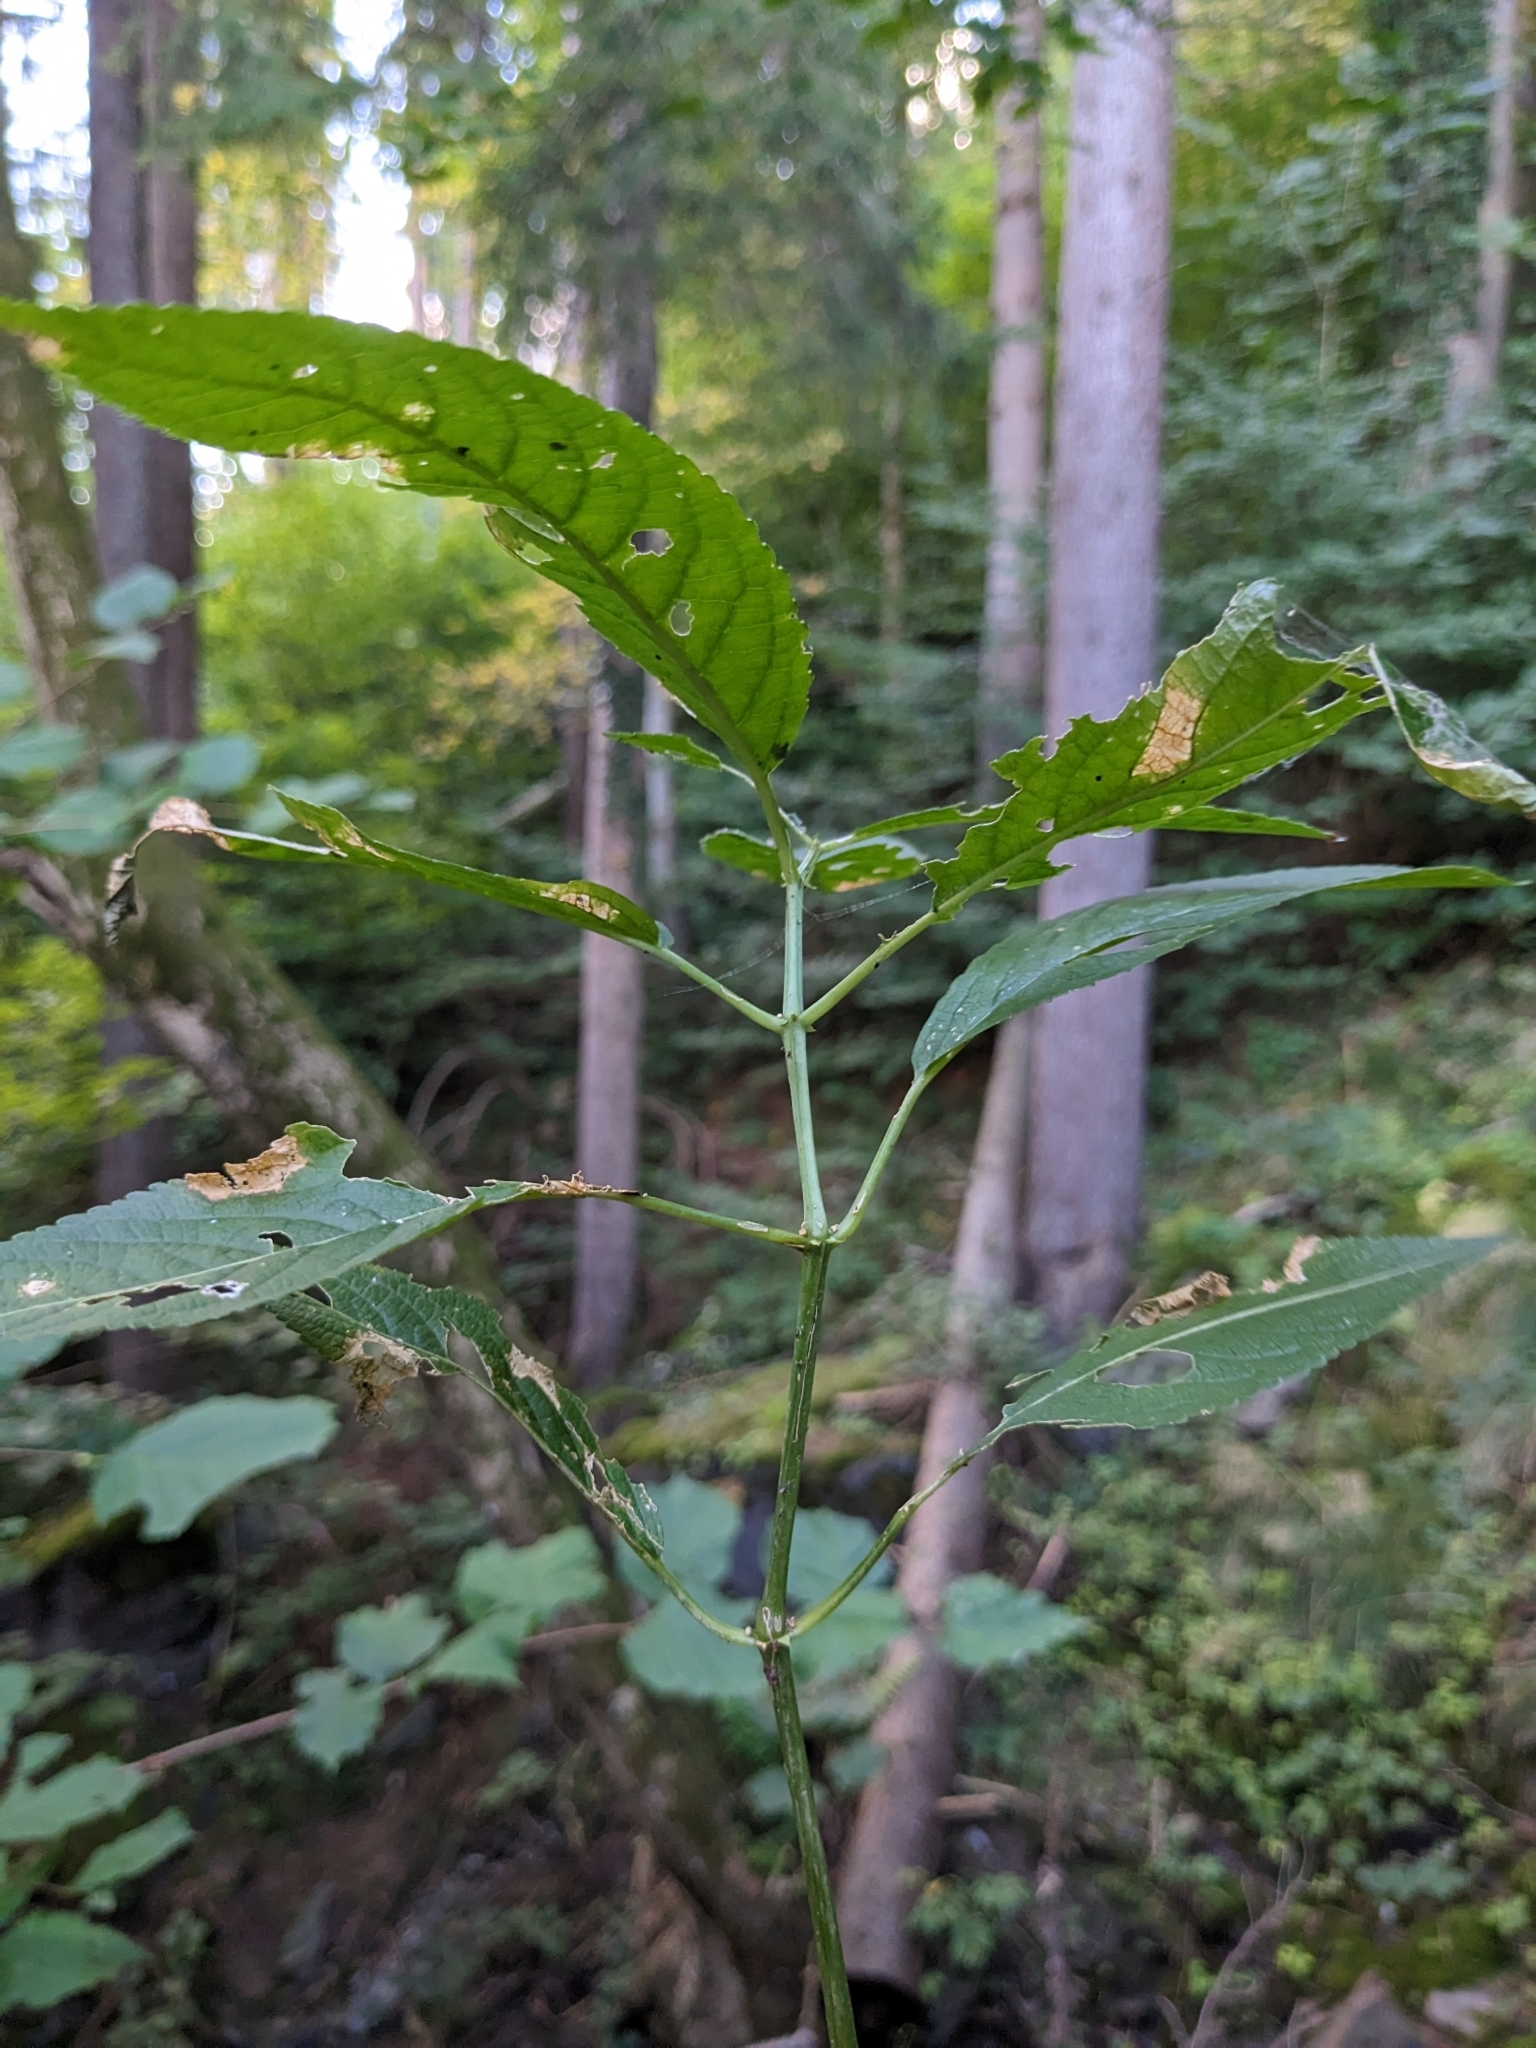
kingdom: Plantae
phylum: Tracheophyta
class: Magnoliopsida
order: Malpighiales
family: Euphorbiaceae
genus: Mercurialis
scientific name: Mercurialis perennis
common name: Dog mercury
